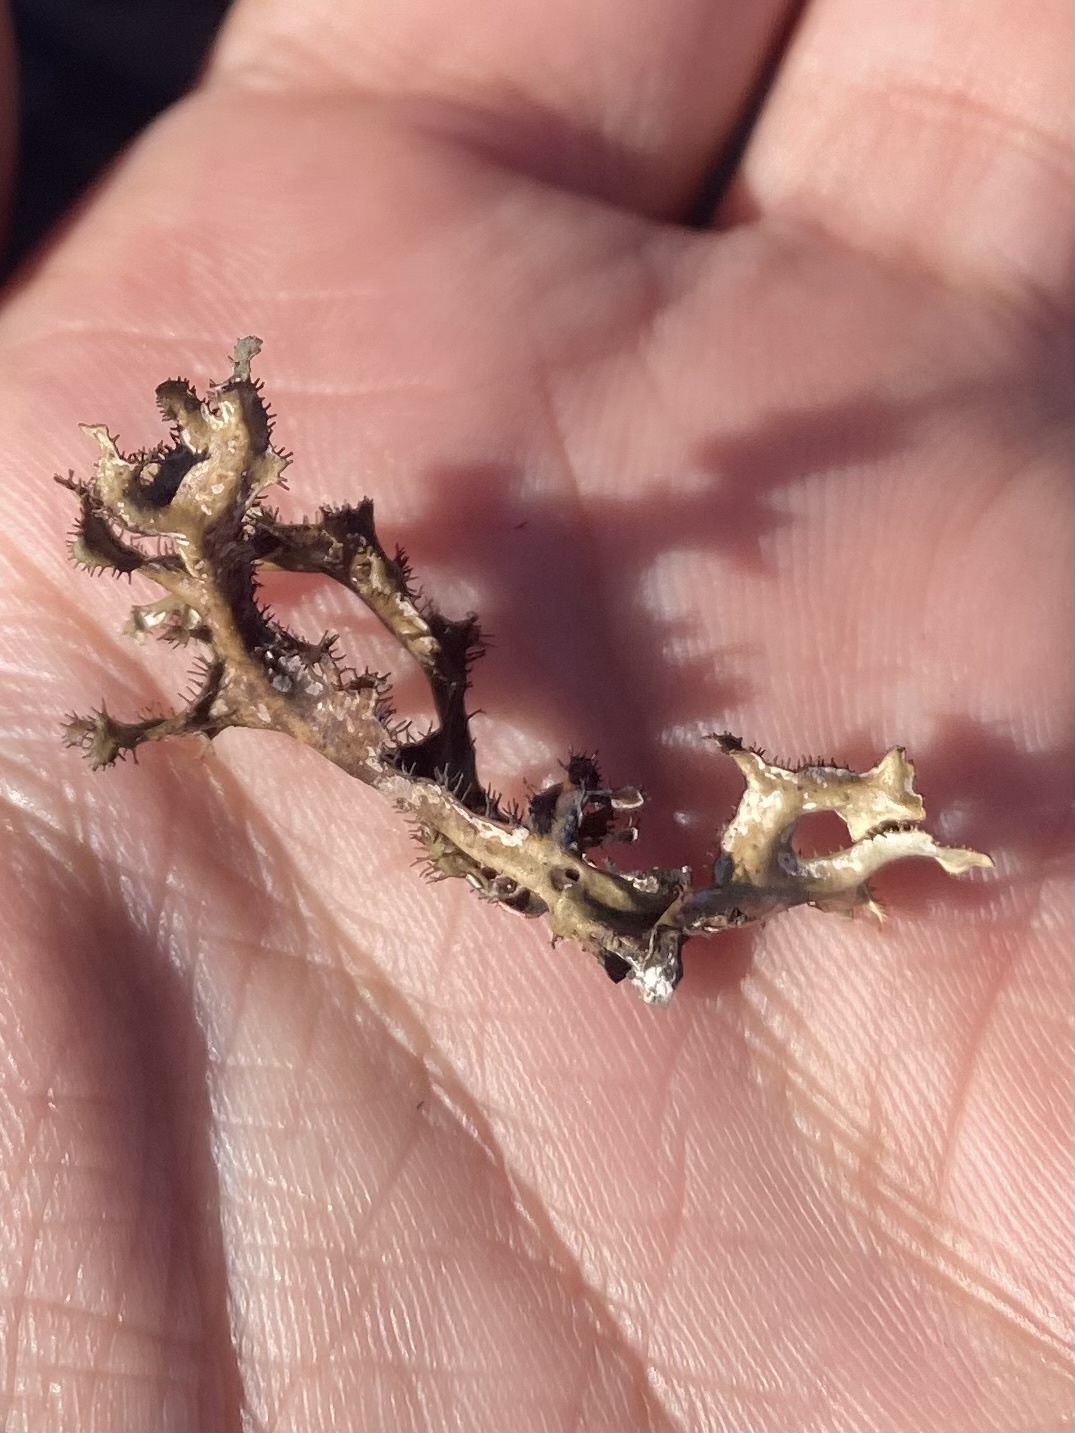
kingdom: Fungi
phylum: Ascomycota
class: Lecanoromycetes
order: Lecanorales
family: Parmeliaceae
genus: Cetraria
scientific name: Cetraria islandica
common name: Iceland lichen
